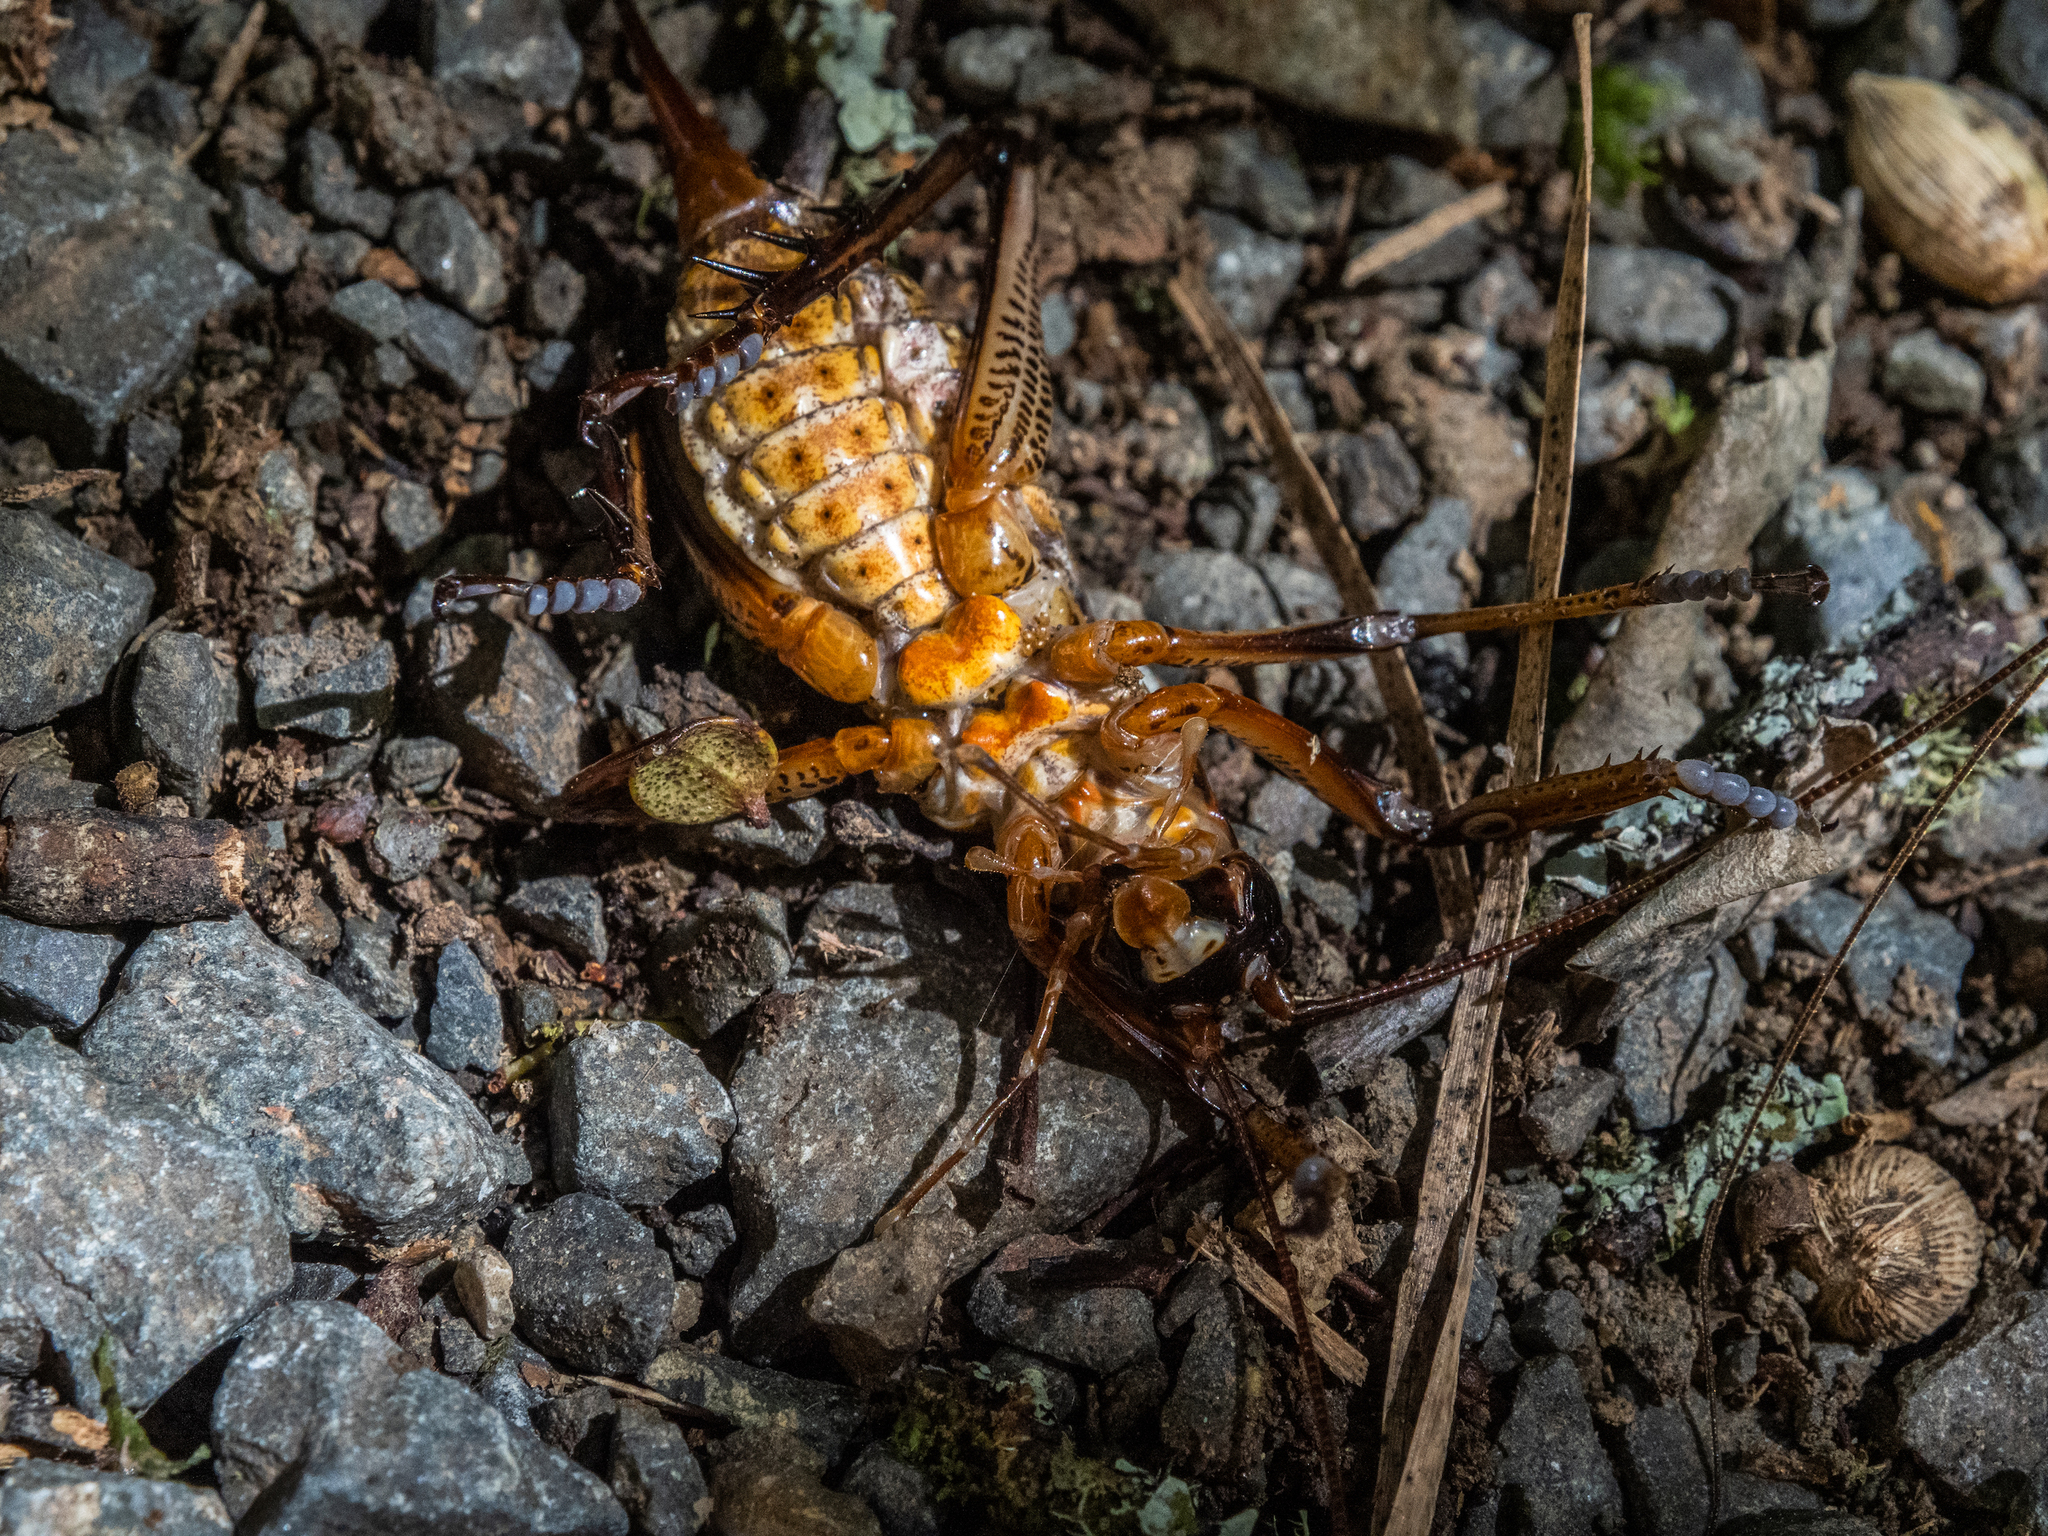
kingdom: Animalia
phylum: Arthropoda
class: Insecta
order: Orthoptera
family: Anostostomatidae
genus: Hemideina
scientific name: Hemideina thoracica
